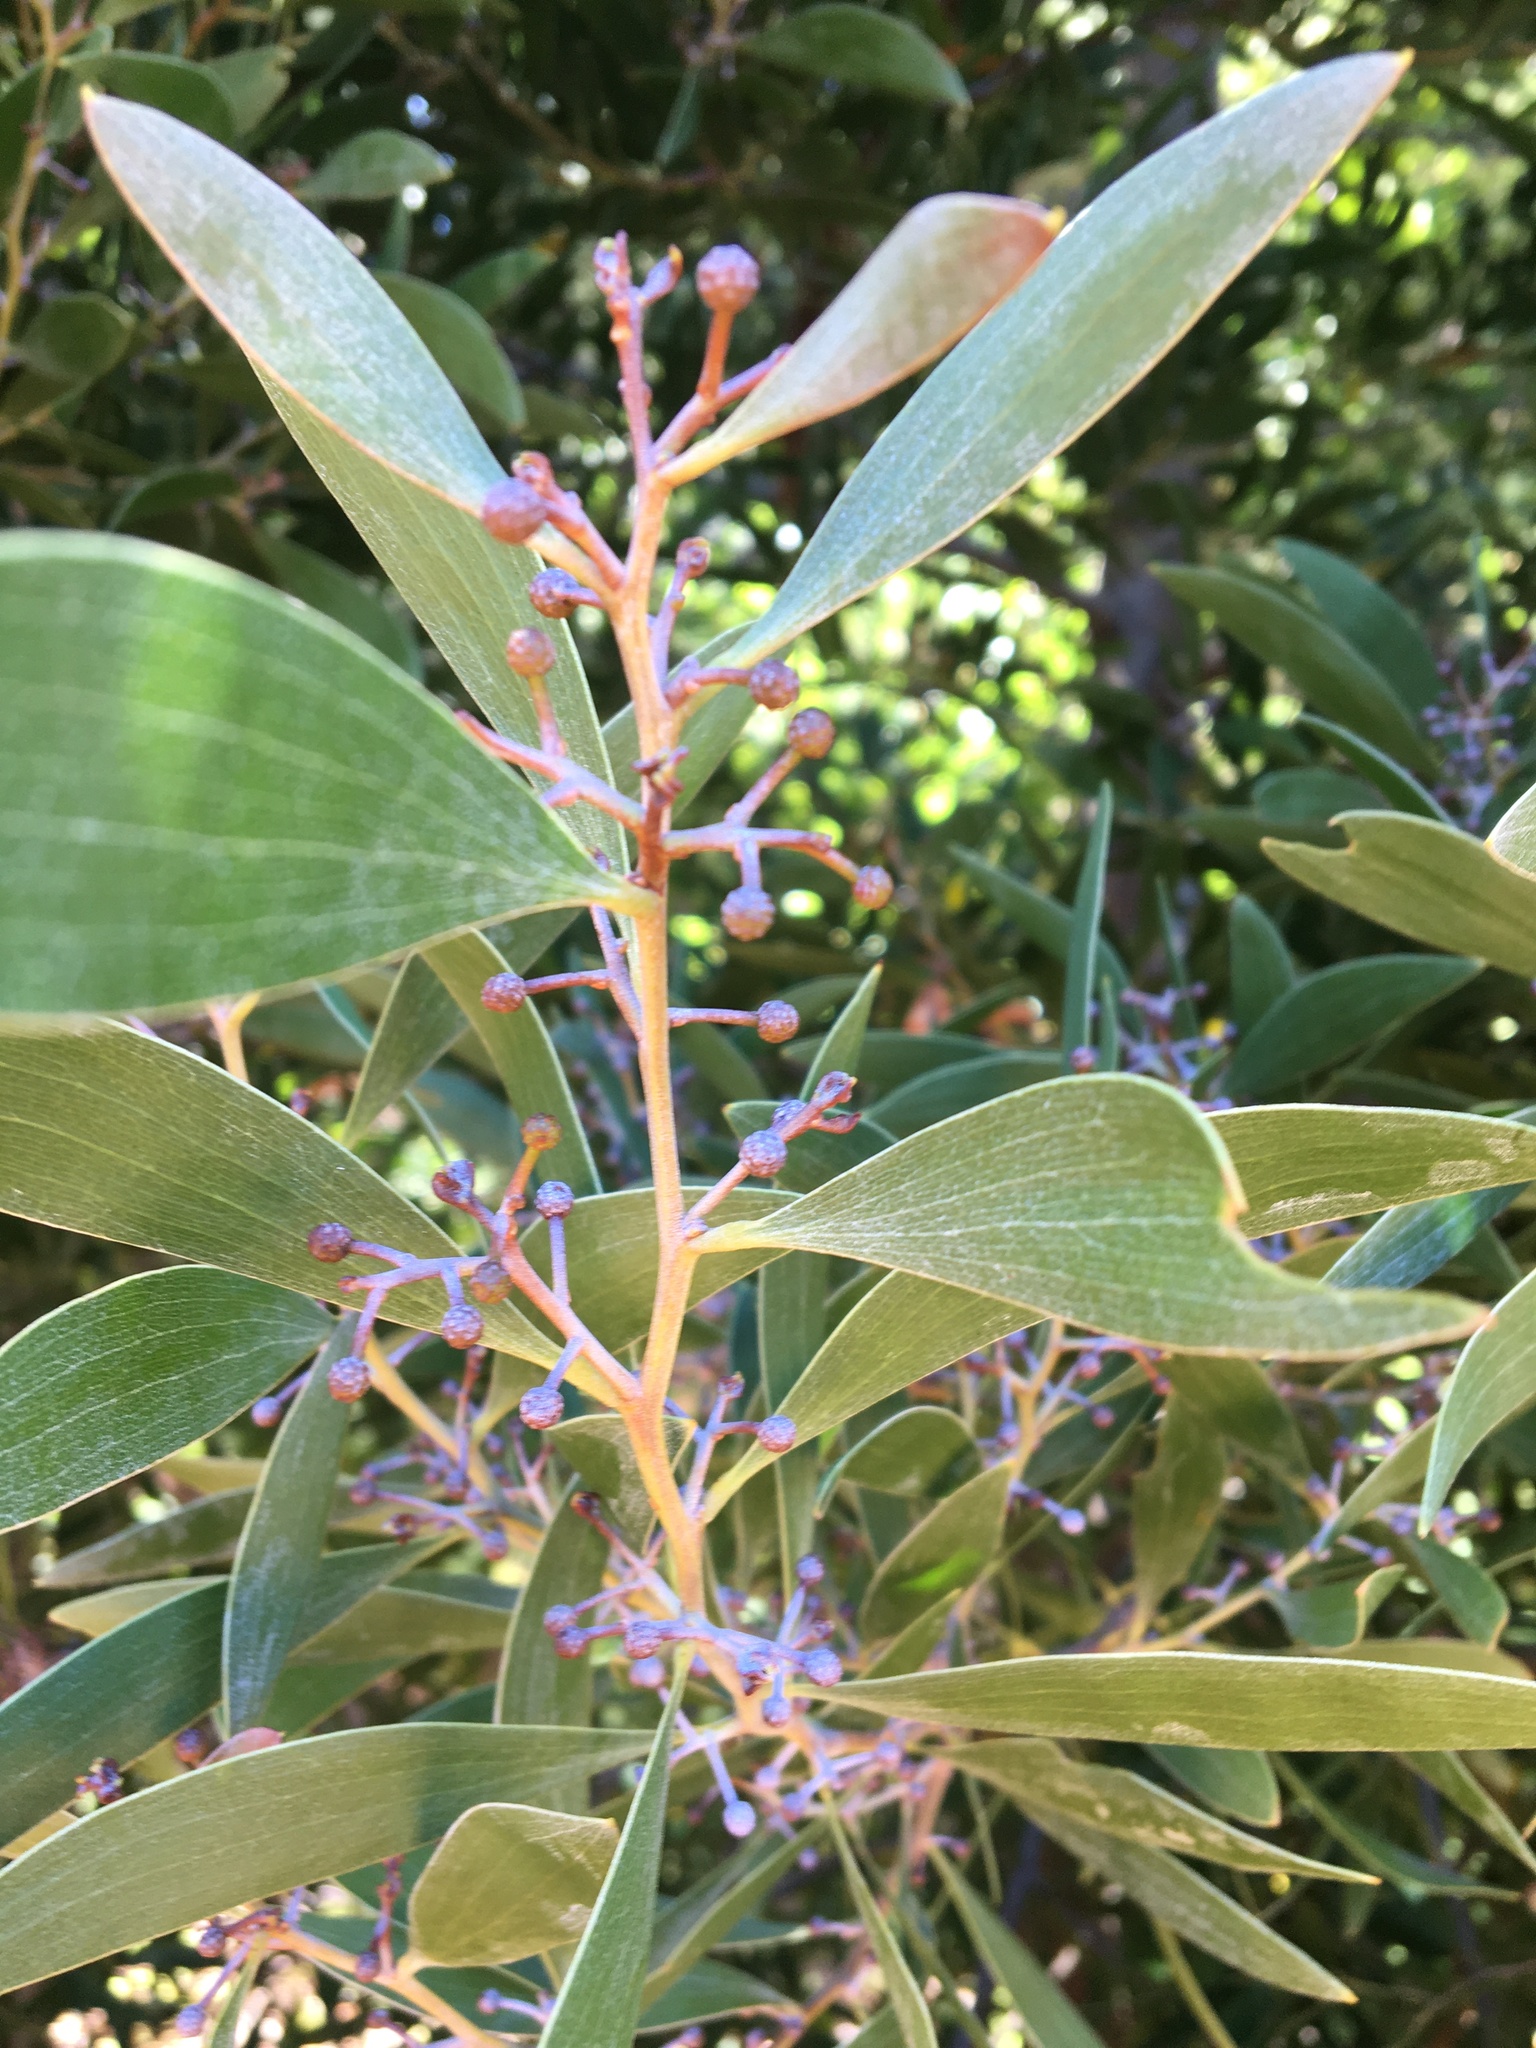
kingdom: Plantae
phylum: Tracheophyta
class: Magnoliopsida
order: Fabales
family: Fabaceae
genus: Acacia
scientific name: Acacia melanoxylon
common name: Blackwood
